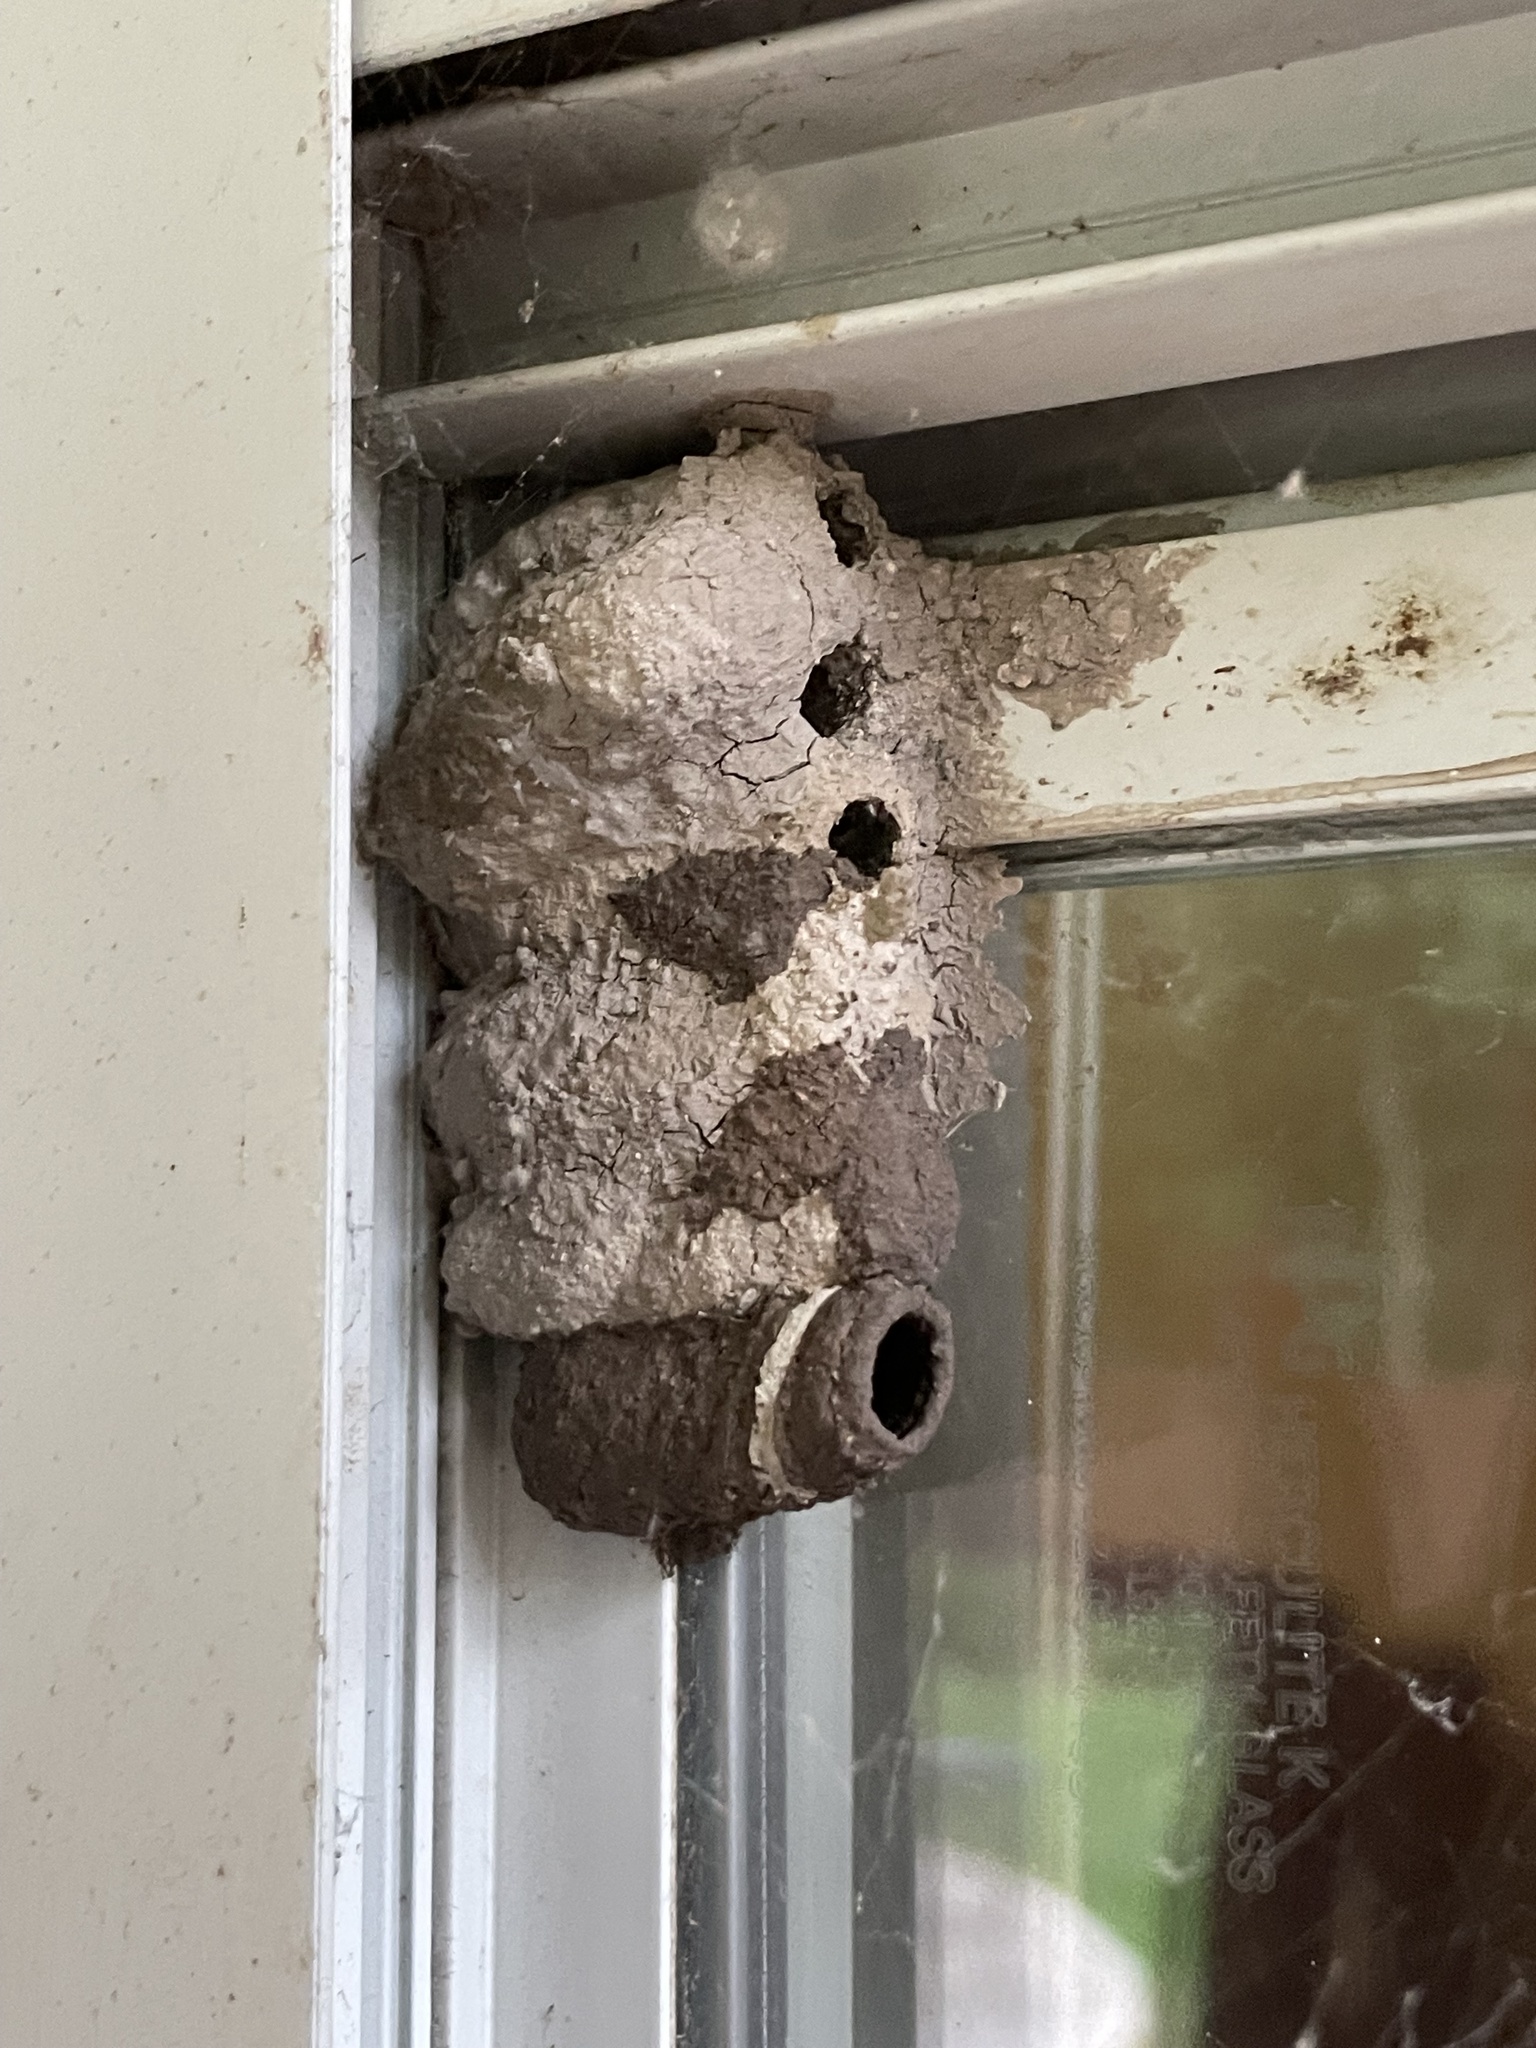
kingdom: Animalia
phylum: Arthropoda
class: Insecta
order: Hymenoptera
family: Sphecidae
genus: Sceliphron
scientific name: Sceliphron caementarium
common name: Mud dauber
